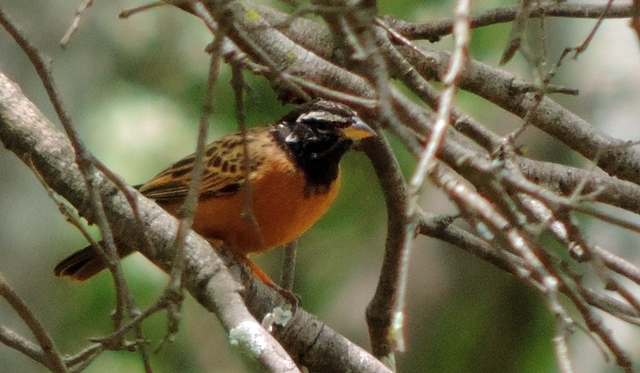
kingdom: Animalia
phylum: Chordata
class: Aves
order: Passeriformes
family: Emberizidae
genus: Emberiza
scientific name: Emberiza tahapisi
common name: Cinnamon-breasted bunting
